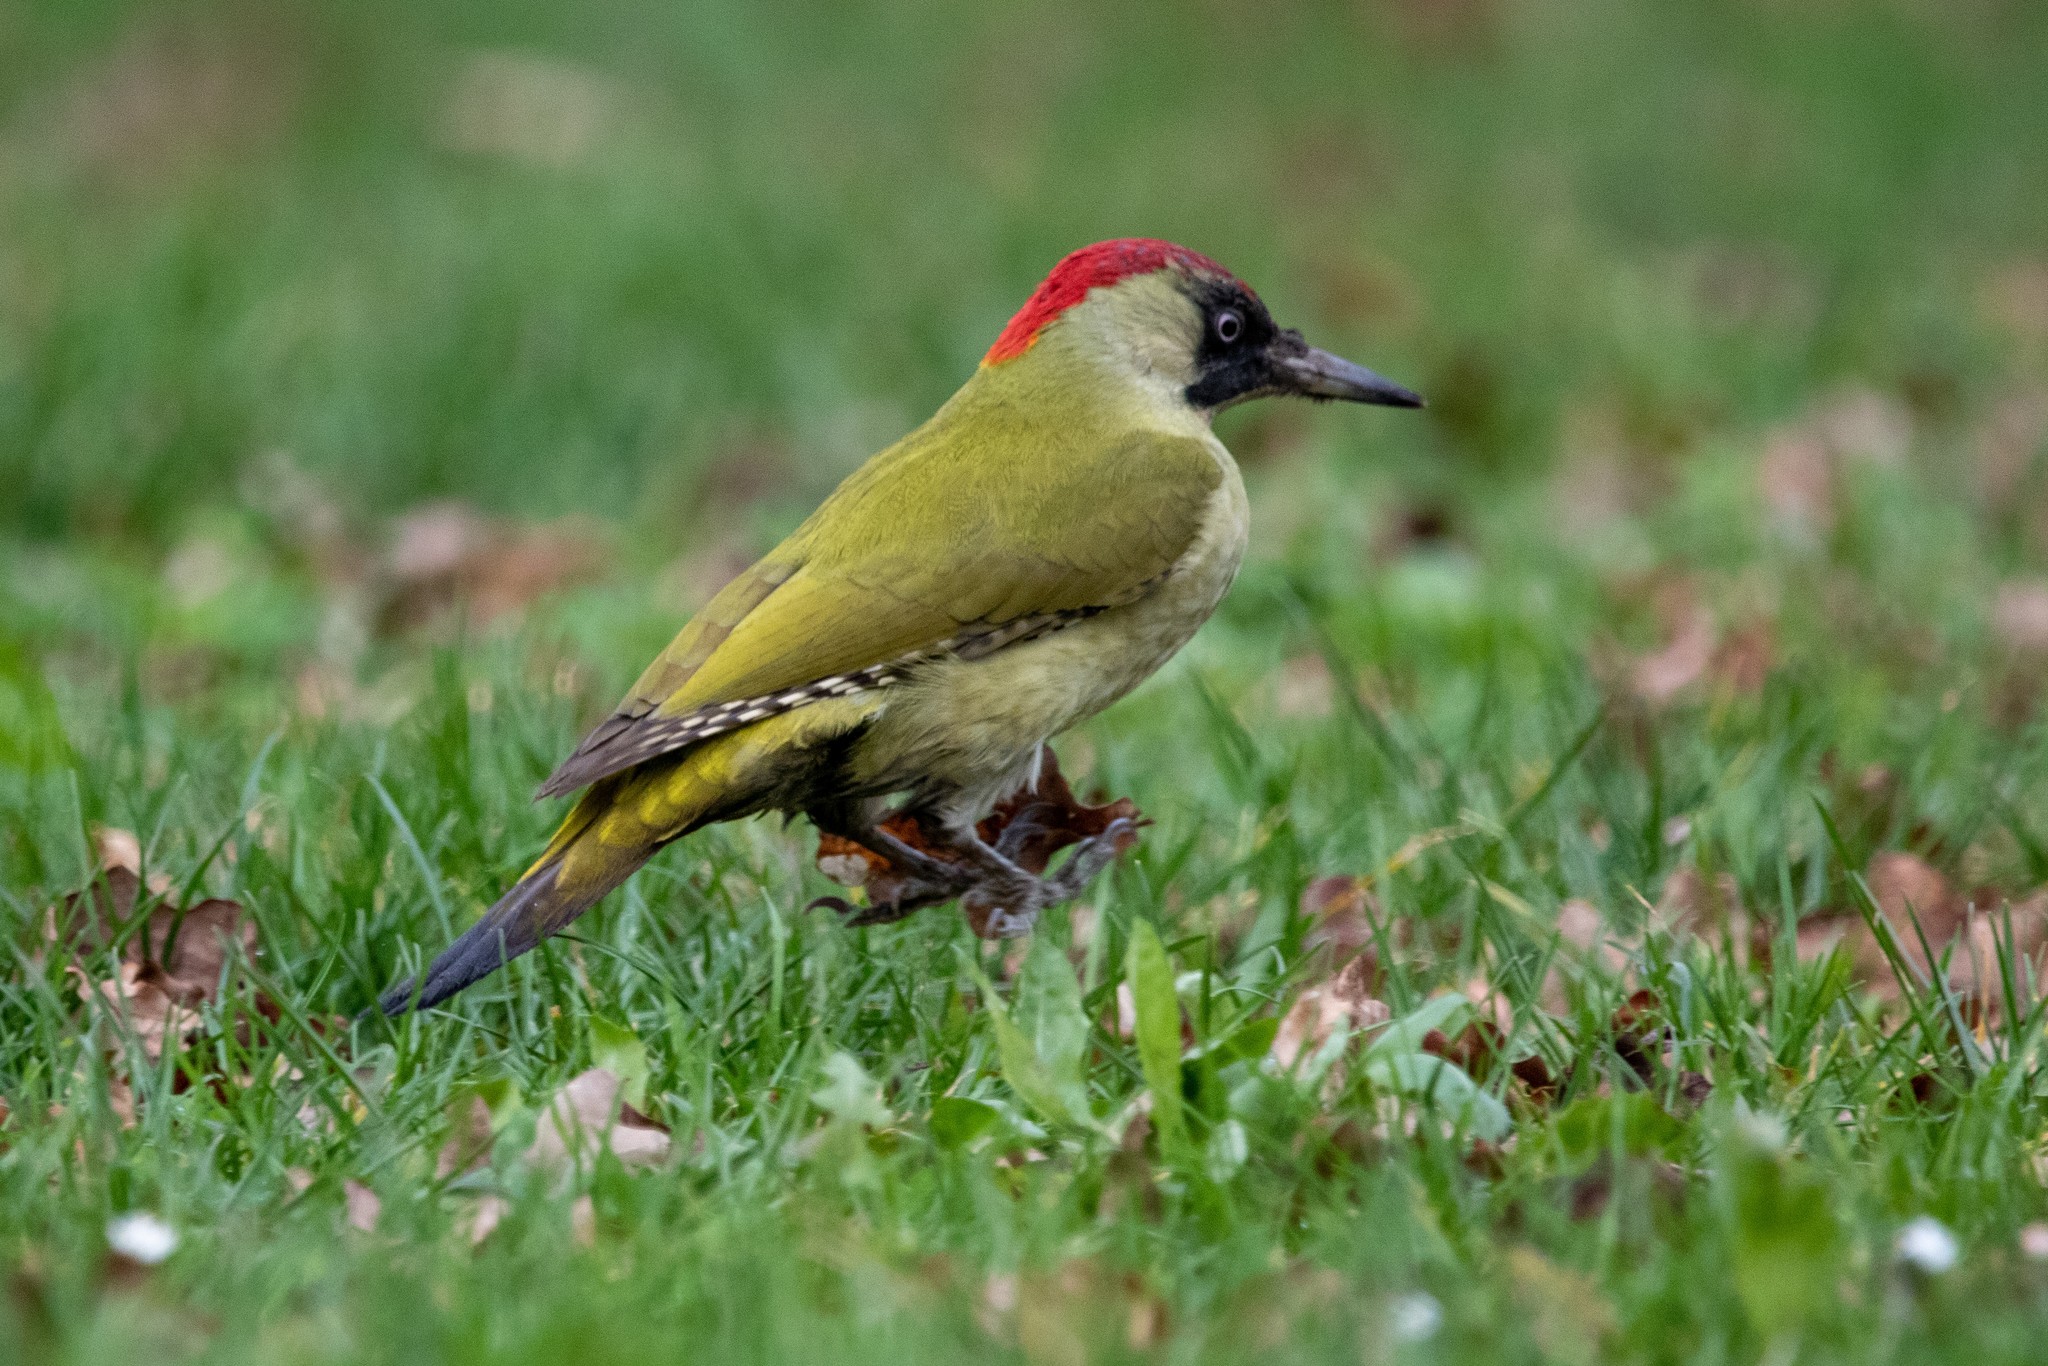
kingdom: Animalia
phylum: Chordata
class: Aves
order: Piciformes
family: Picidae
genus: Picus
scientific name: Picus viridis
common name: European green woodpecker
